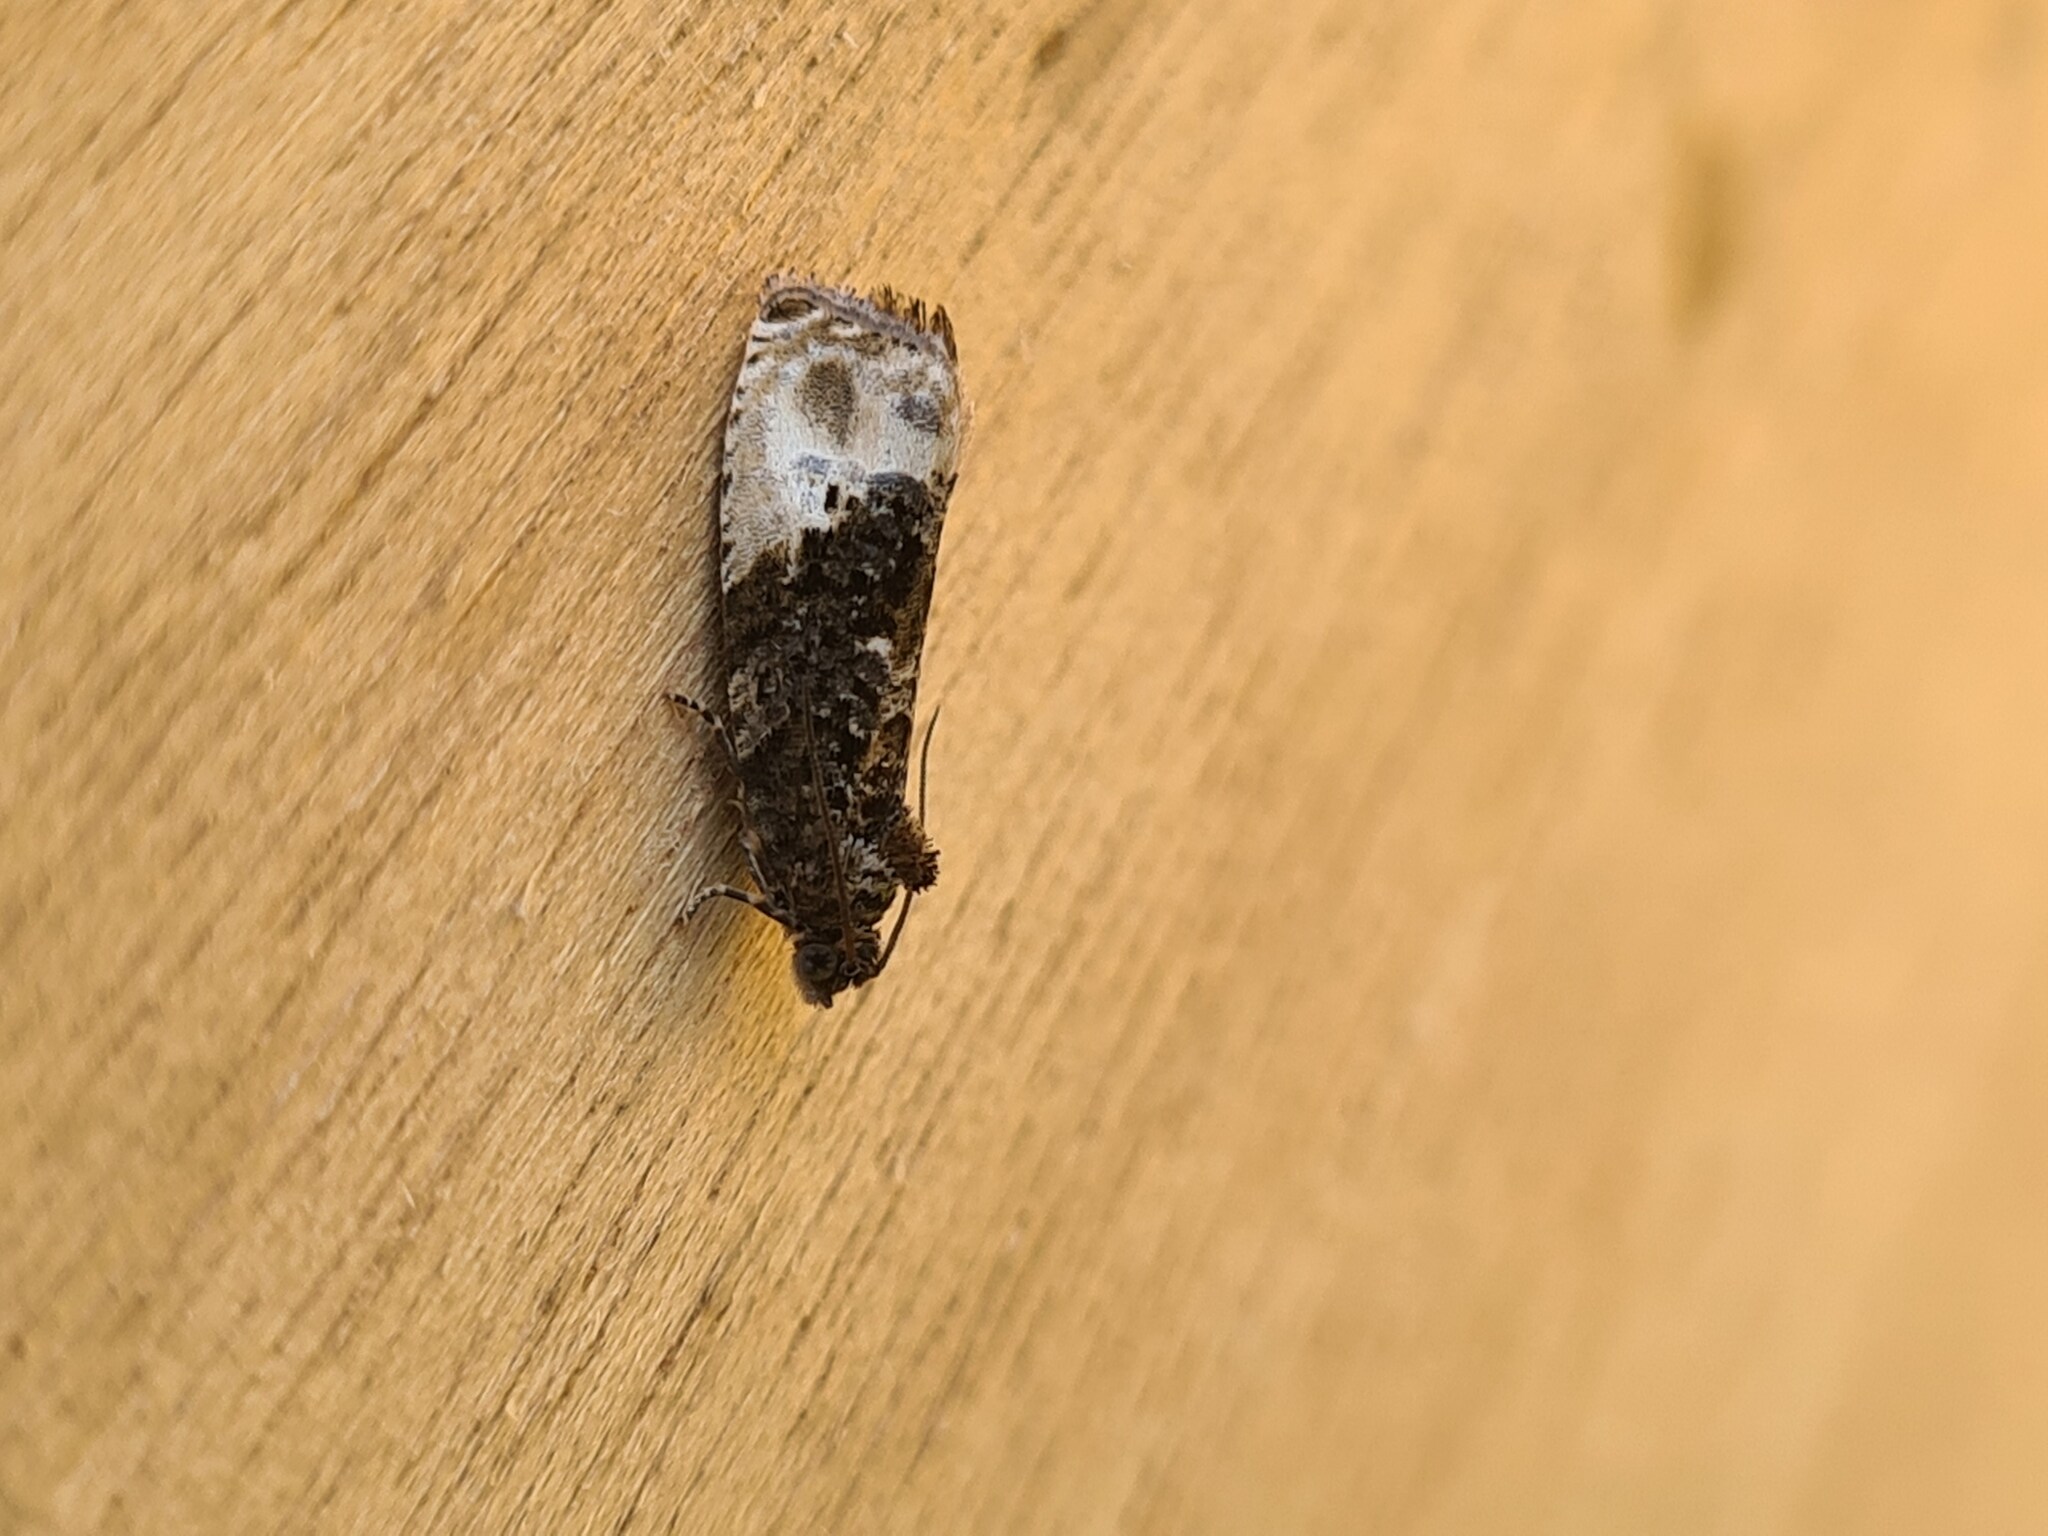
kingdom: Animalia
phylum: Arthropoda
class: Insecta
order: Lepidoptera
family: Tortricidae
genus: Hedya
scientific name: Hedya nubiferana
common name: Marbled orchard tortrix
